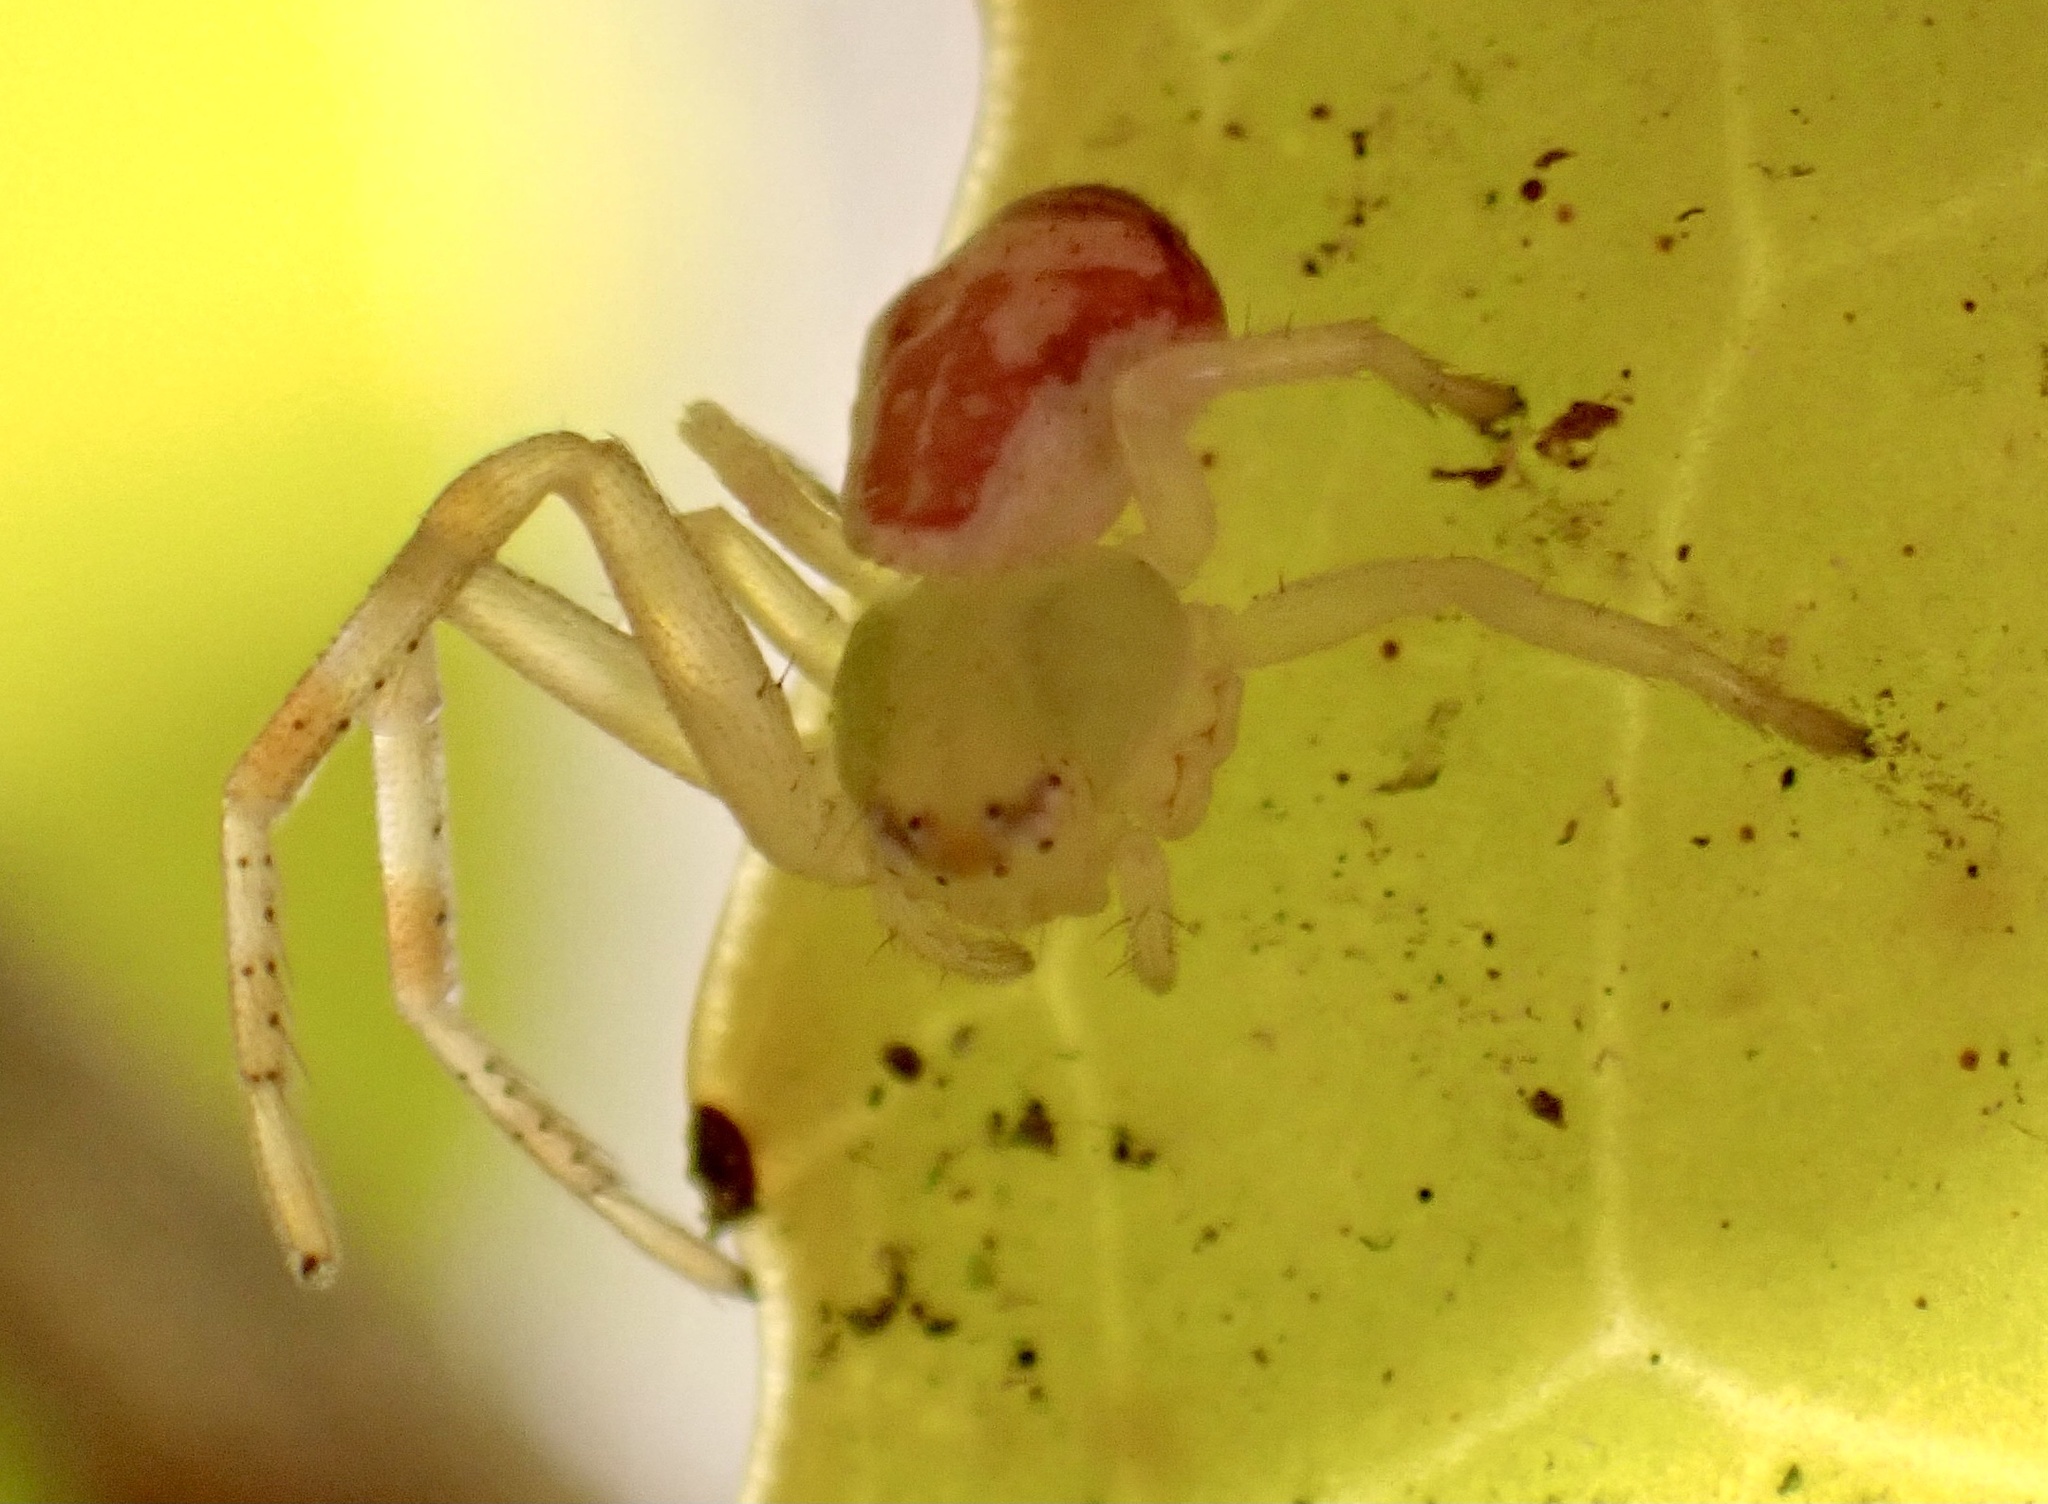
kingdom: Animalia
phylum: Arthropoda
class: Arachnida
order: Araneae
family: Thomisidae
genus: Ebrechtella
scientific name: Ebrechtella tricuspidata
